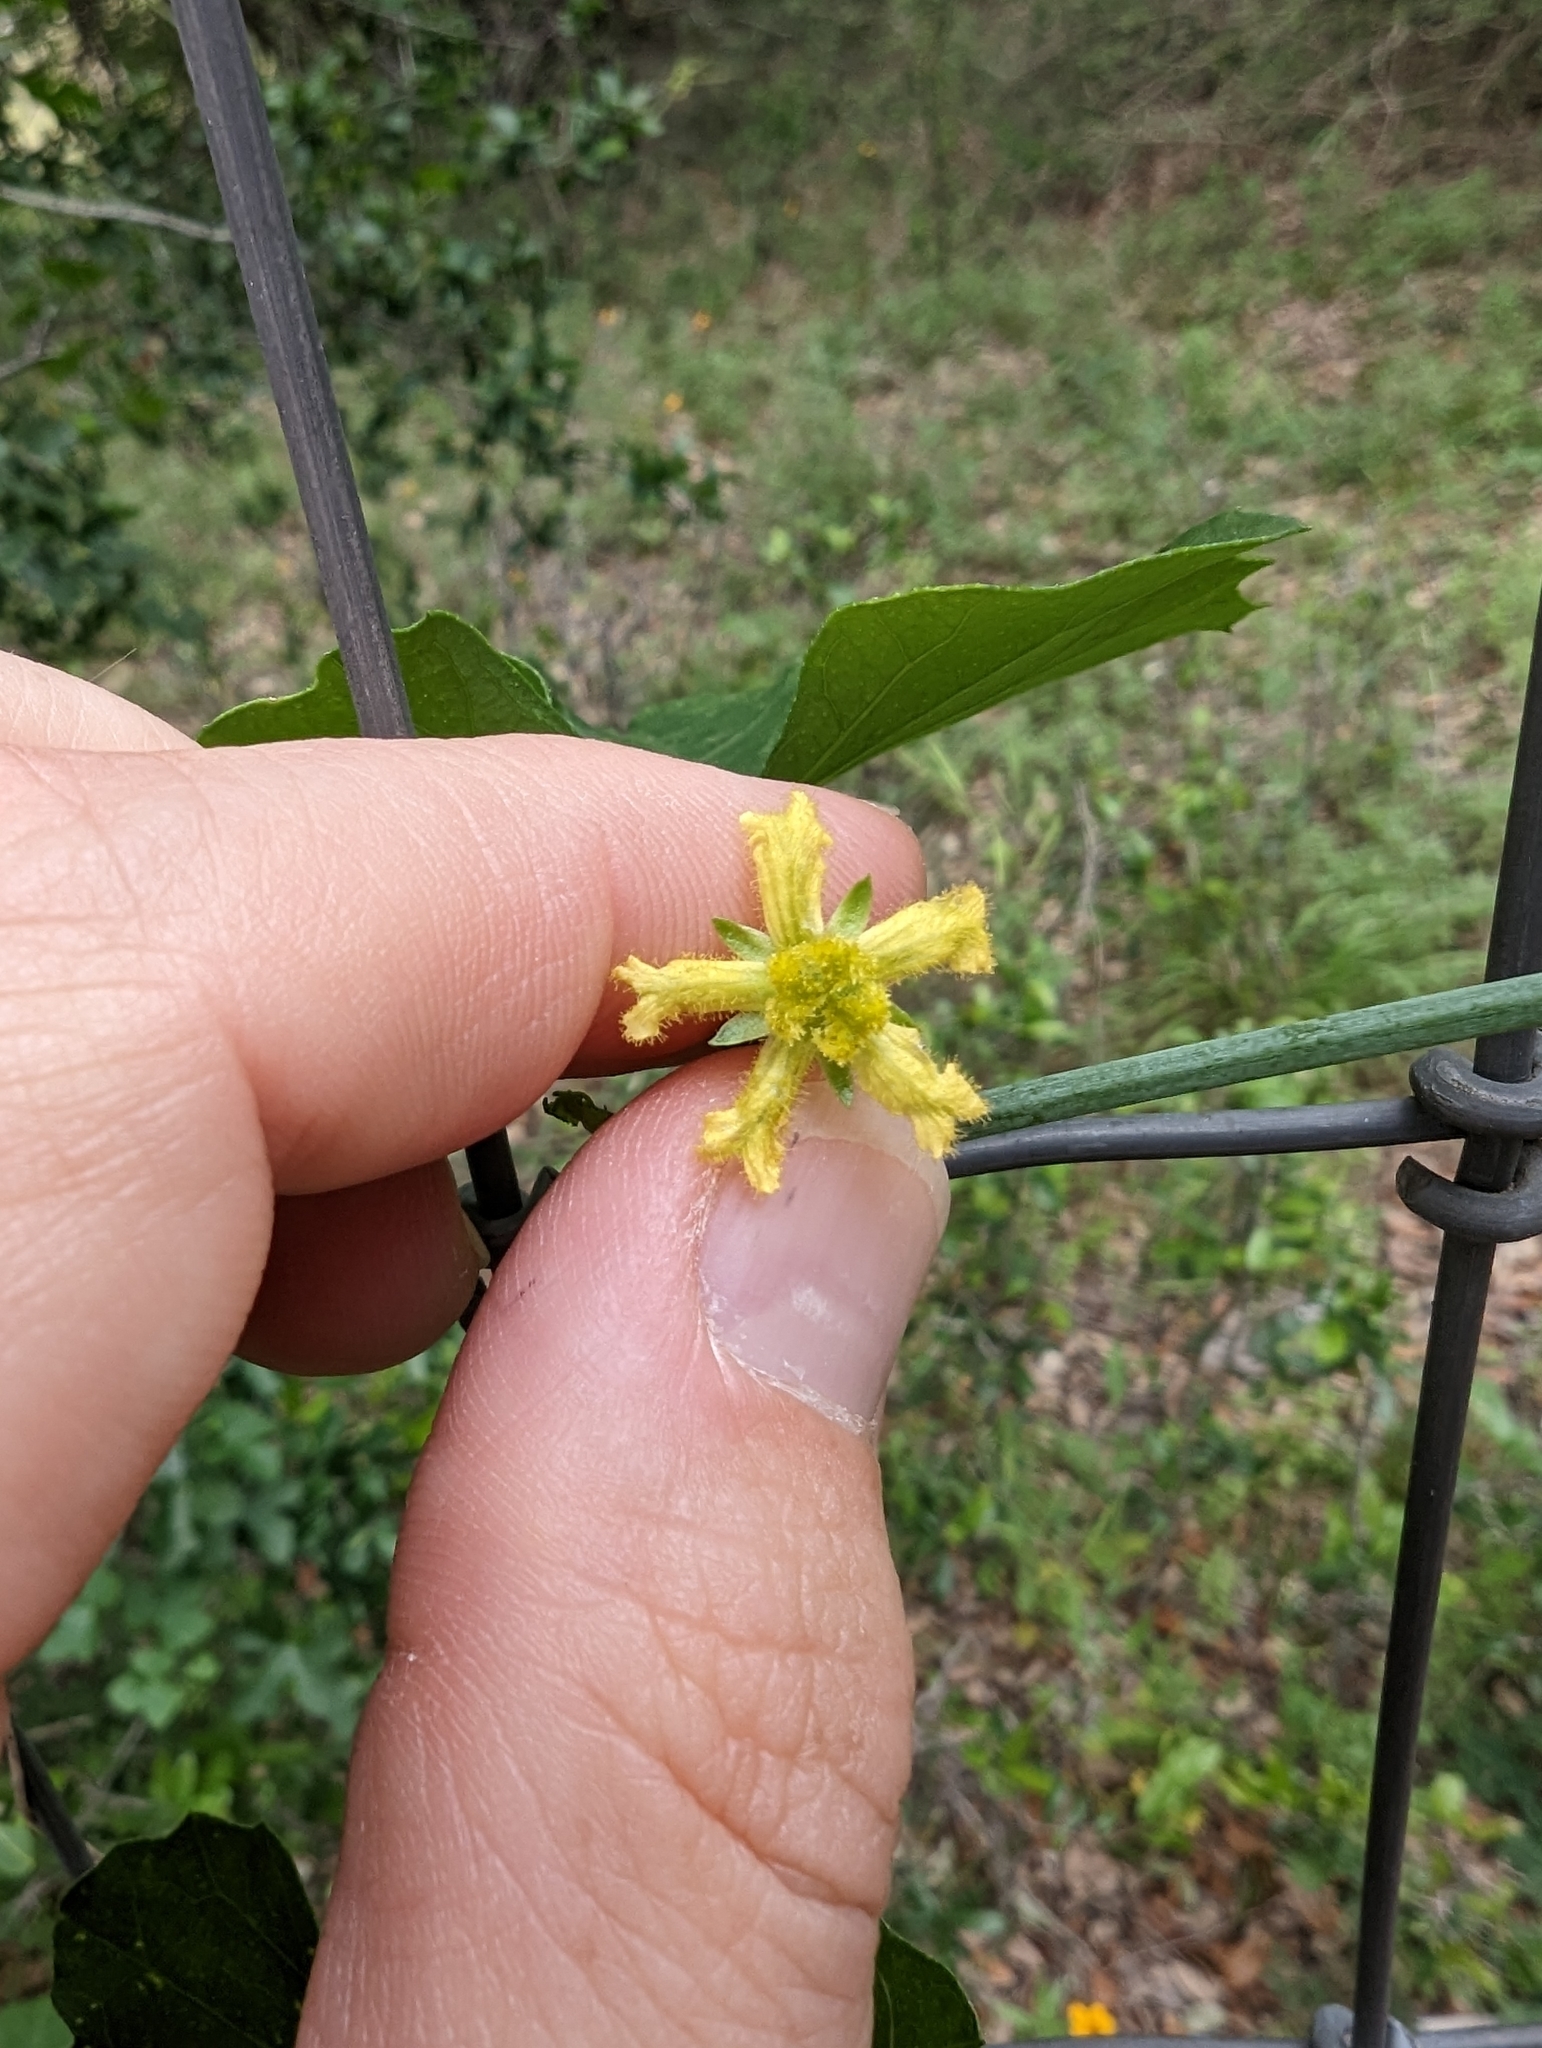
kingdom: Plantae
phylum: Tracheophyta
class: Magnoliopsida
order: Cucurbitales
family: Cucurbitaceae
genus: Ibervillea
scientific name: Ibervillea lindheimeri
